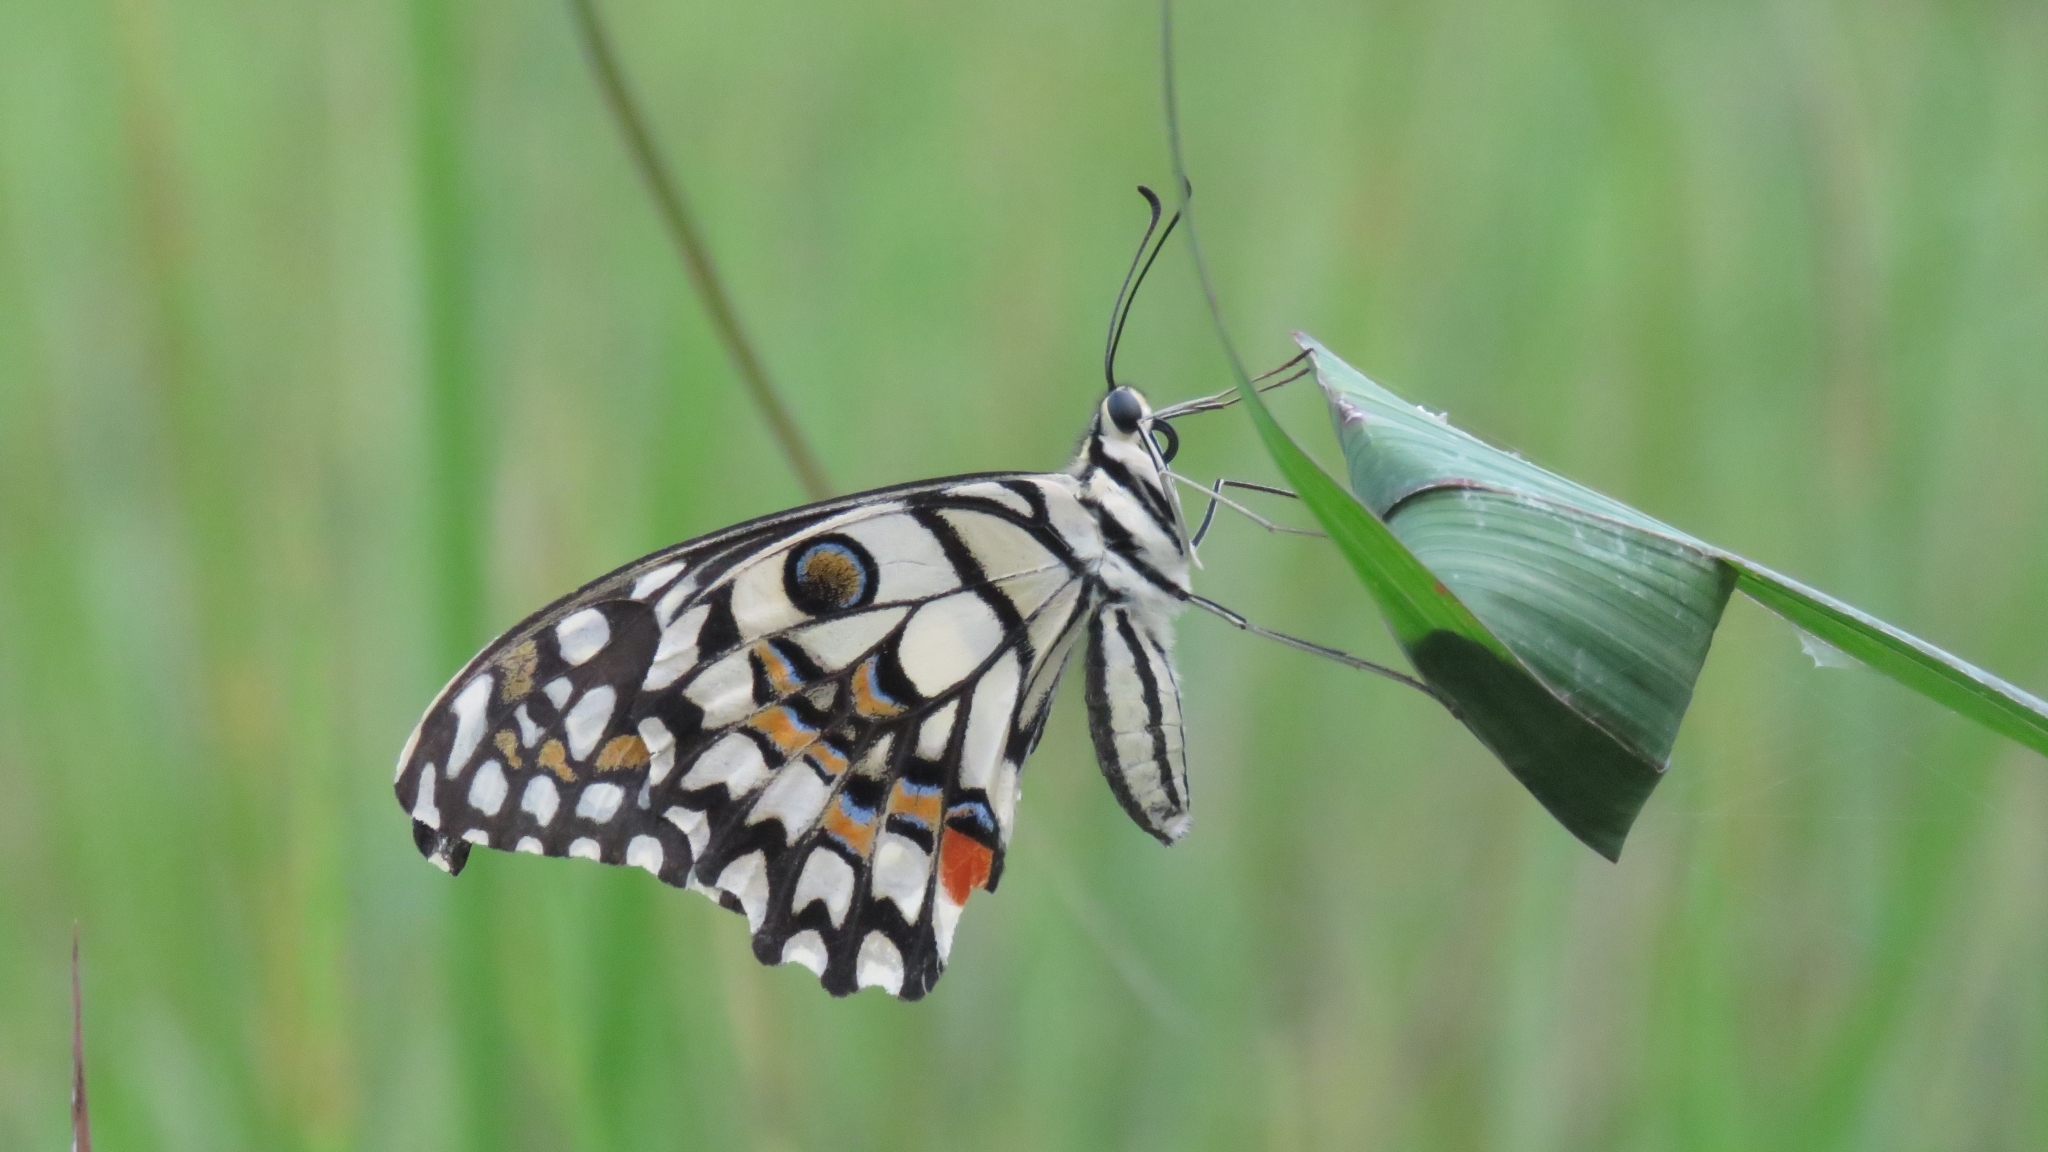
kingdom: Animalia
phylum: Arthropoda
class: Insecta
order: Lepidoptera
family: Papilionidae
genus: Papilio
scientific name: Papilio demoleus
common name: Lime butterfly
